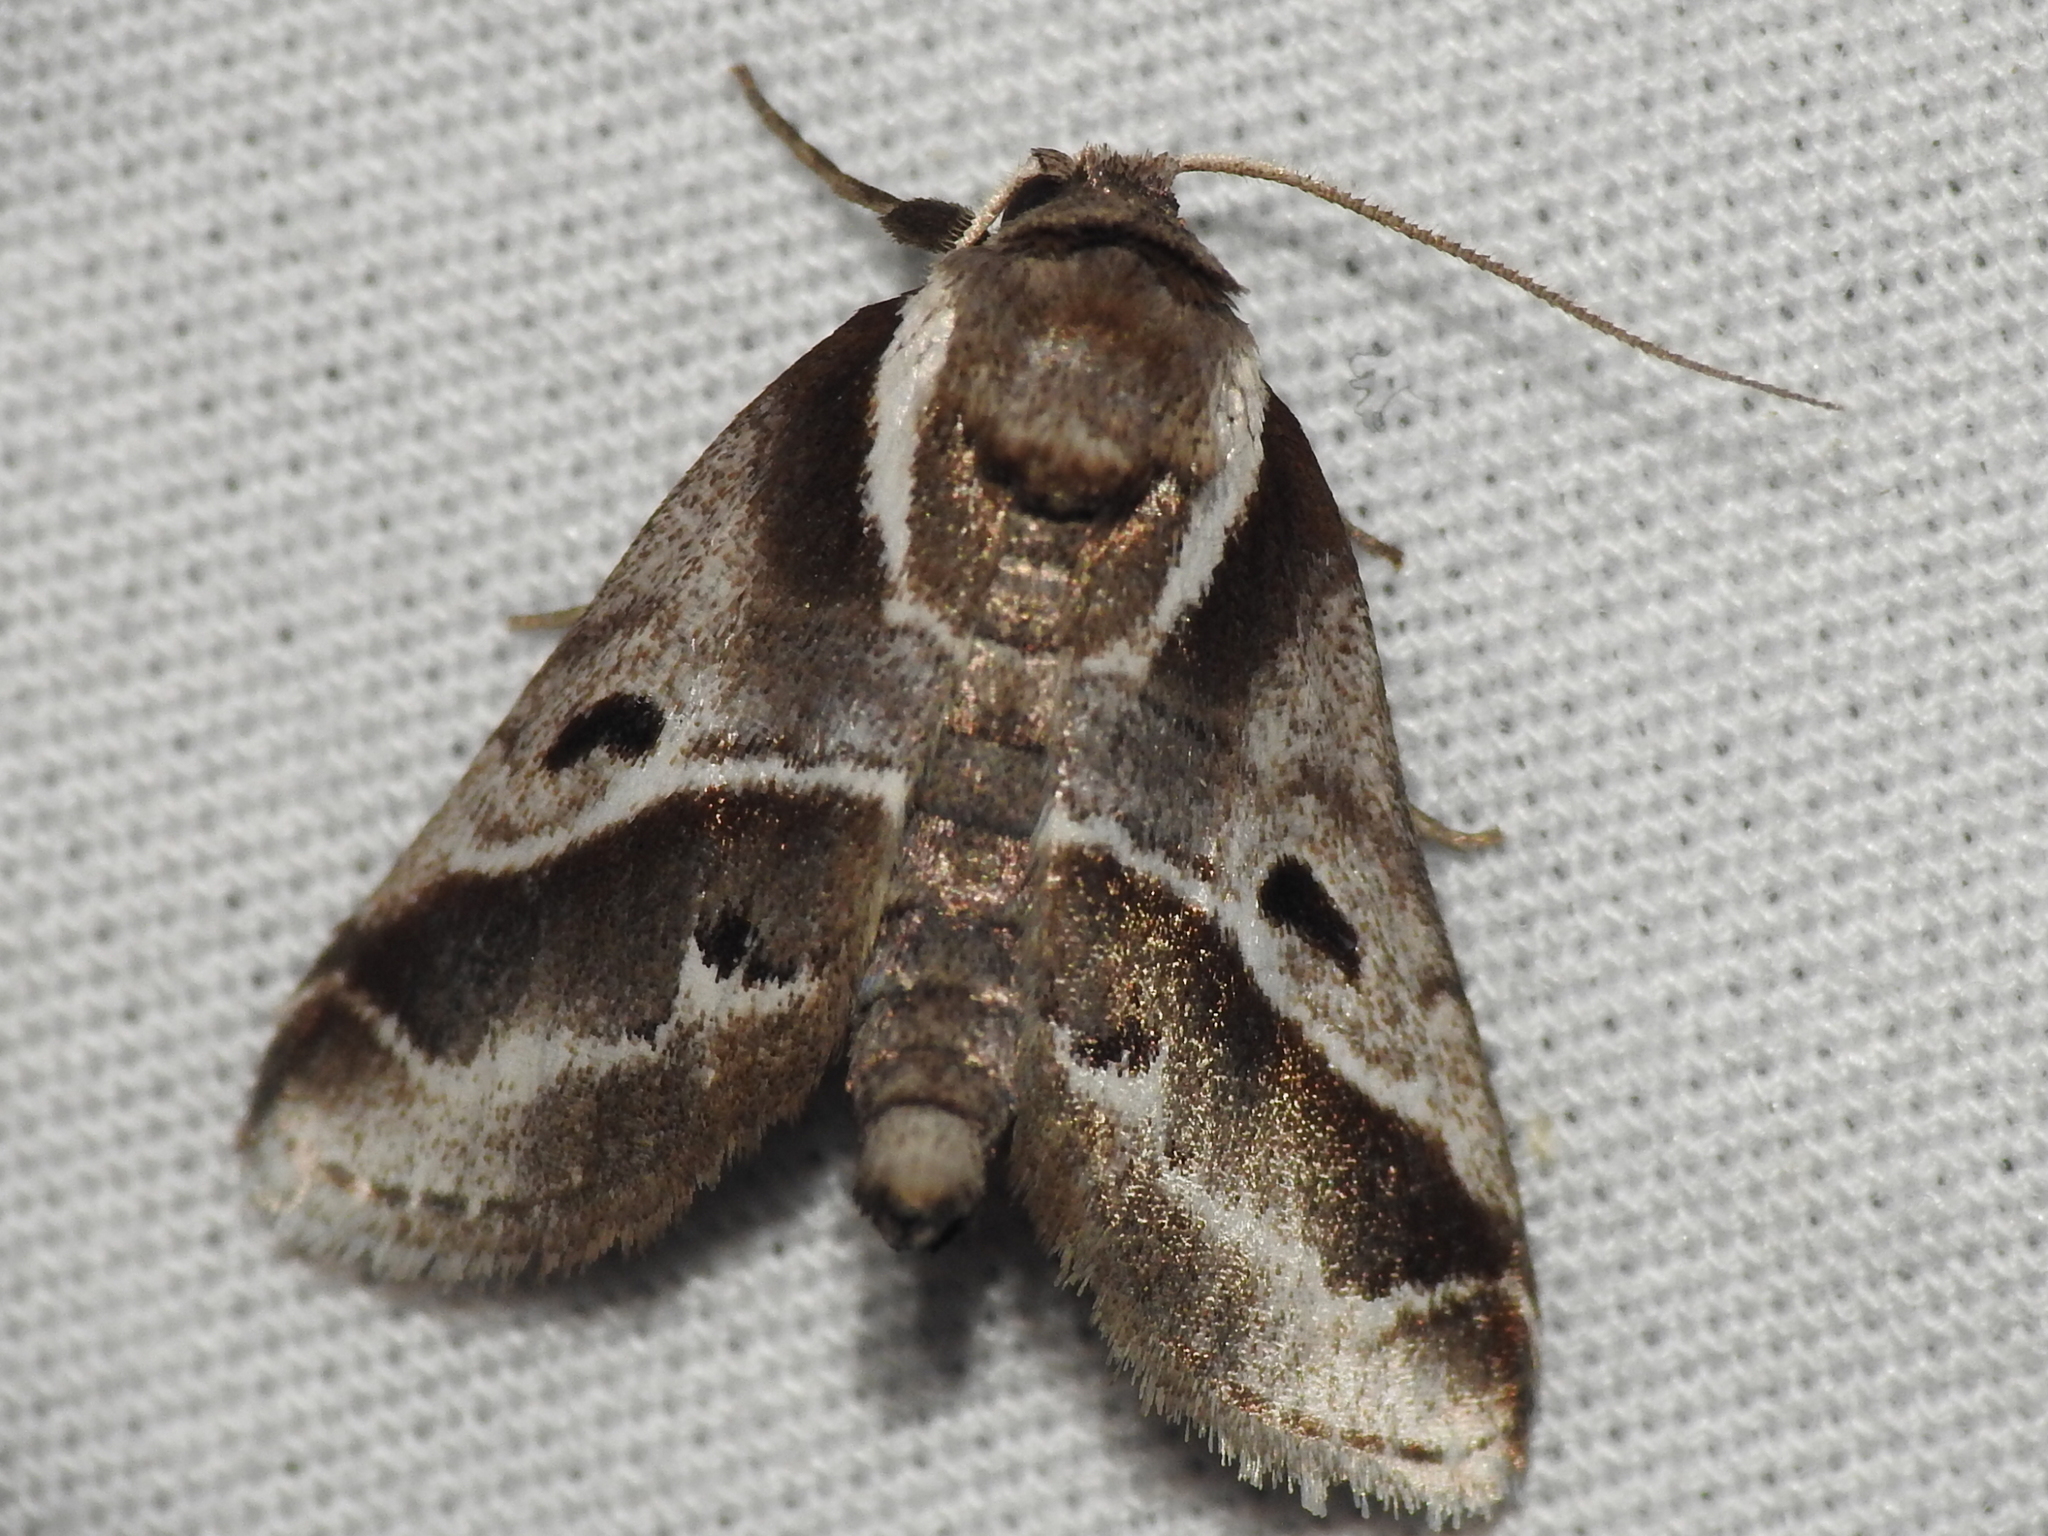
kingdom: Animalia
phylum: Arthropoda
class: Insecta
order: Lepidoptera
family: Nolidae
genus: Baileya
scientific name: Baileya doubledayi
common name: Doubleday's baileya moth
